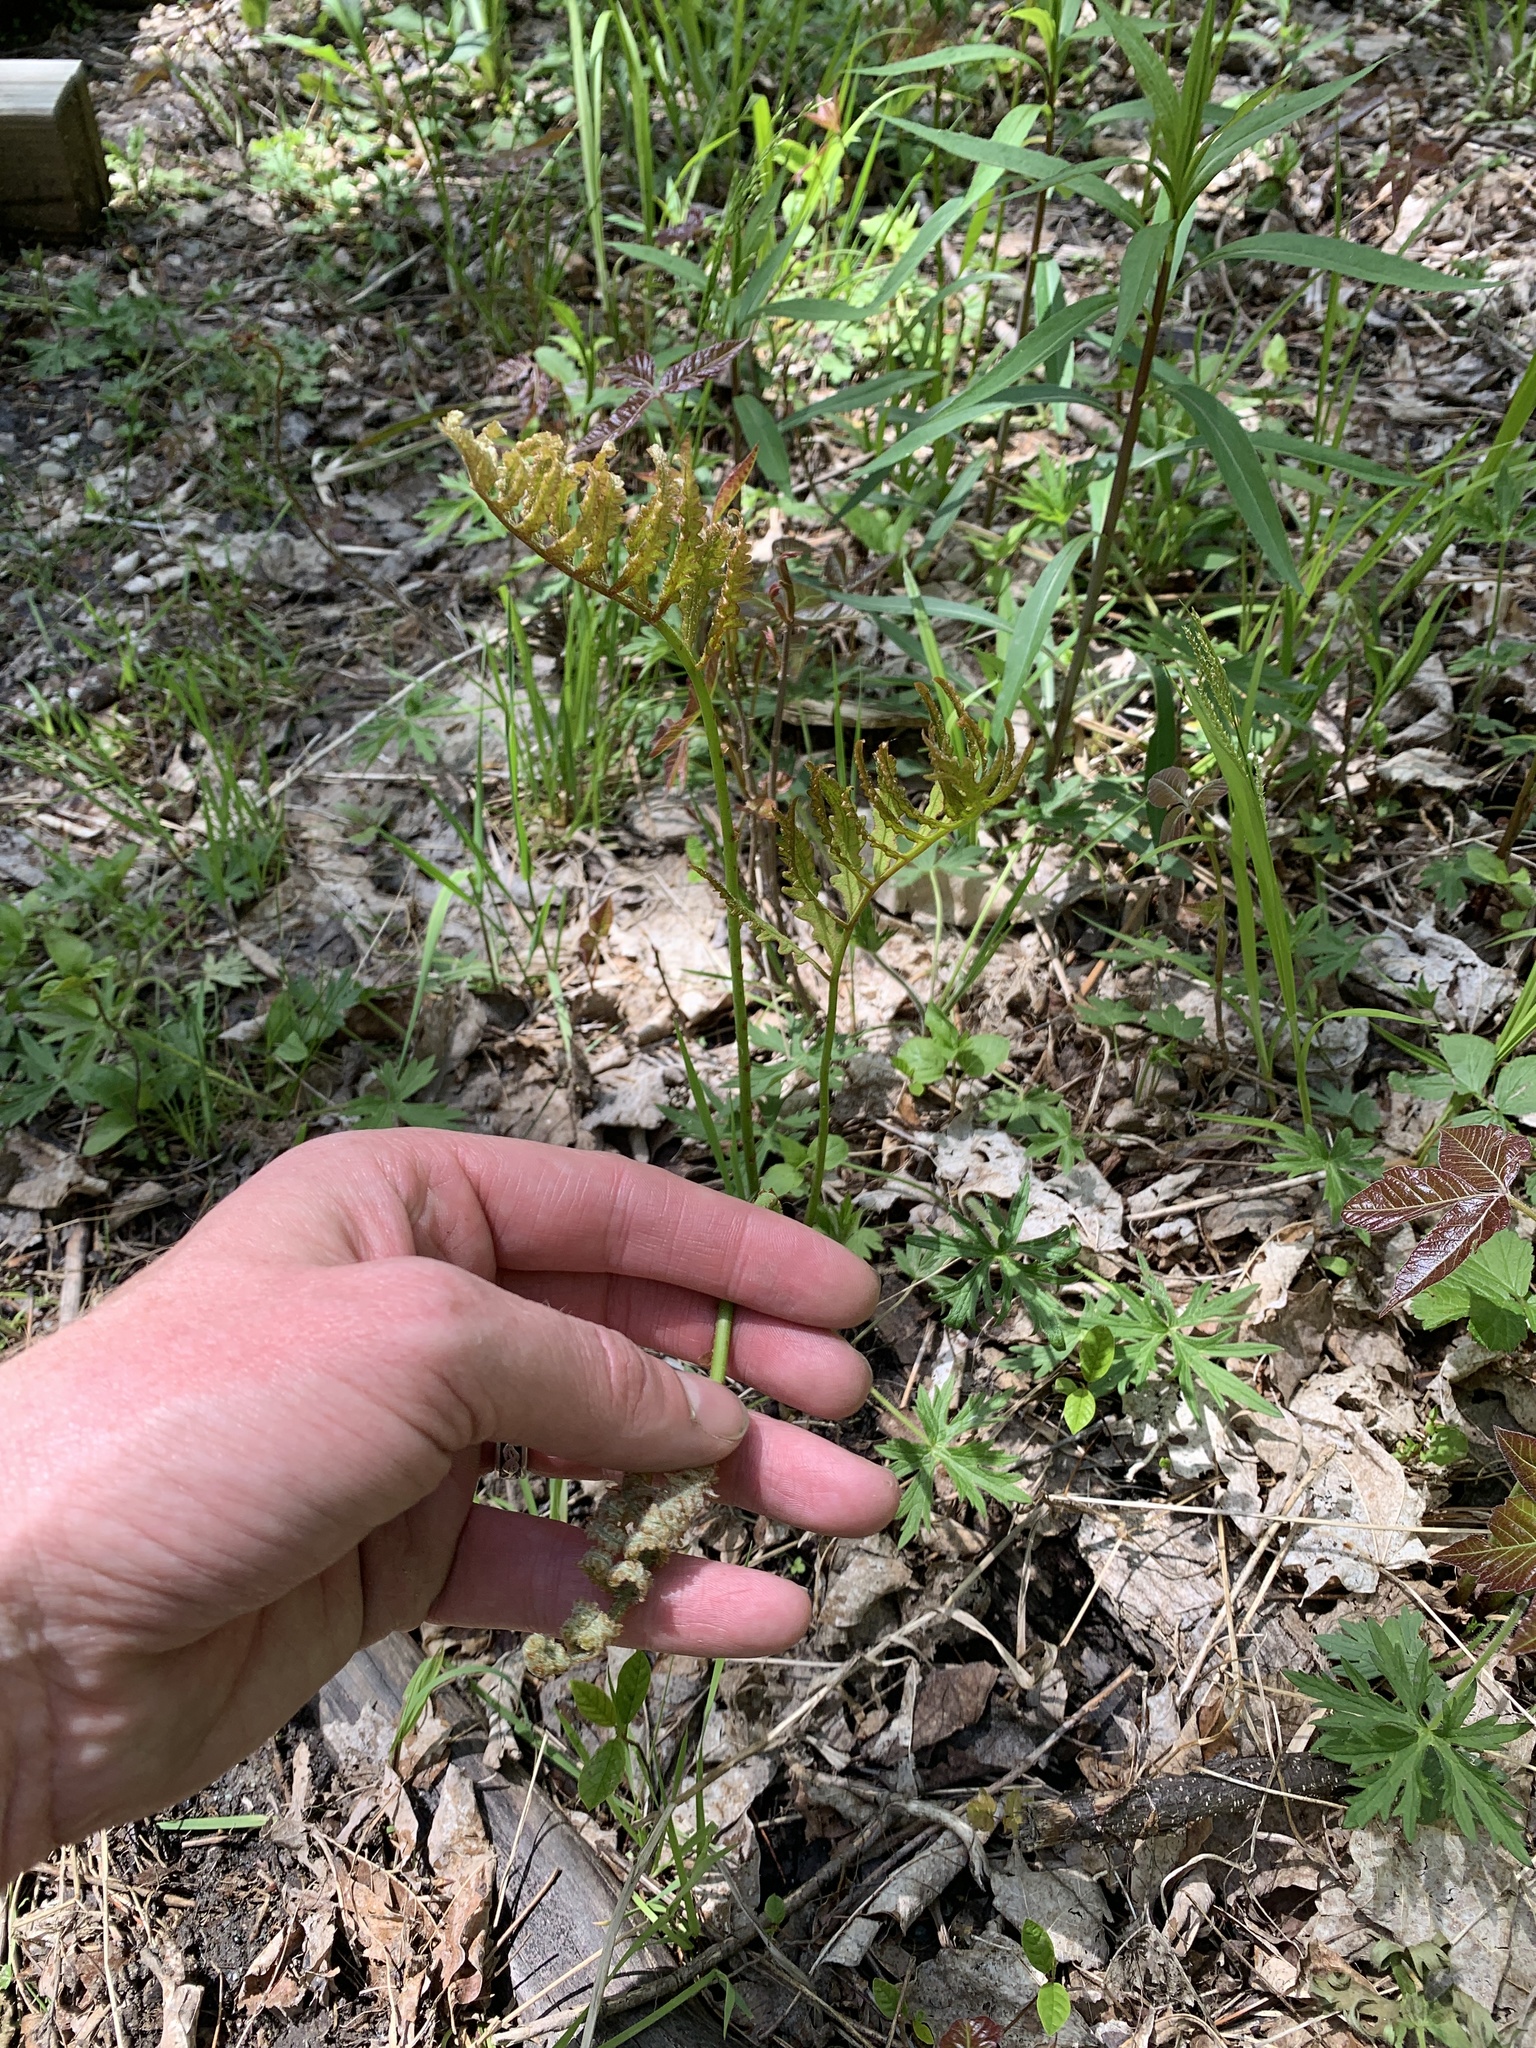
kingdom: Plantae
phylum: Tracheophyta
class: Polypodiopsida
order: Polypodiales
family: Onocleaceae
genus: Onoclea
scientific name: Onoclea sensibilis
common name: Sensitive fern
